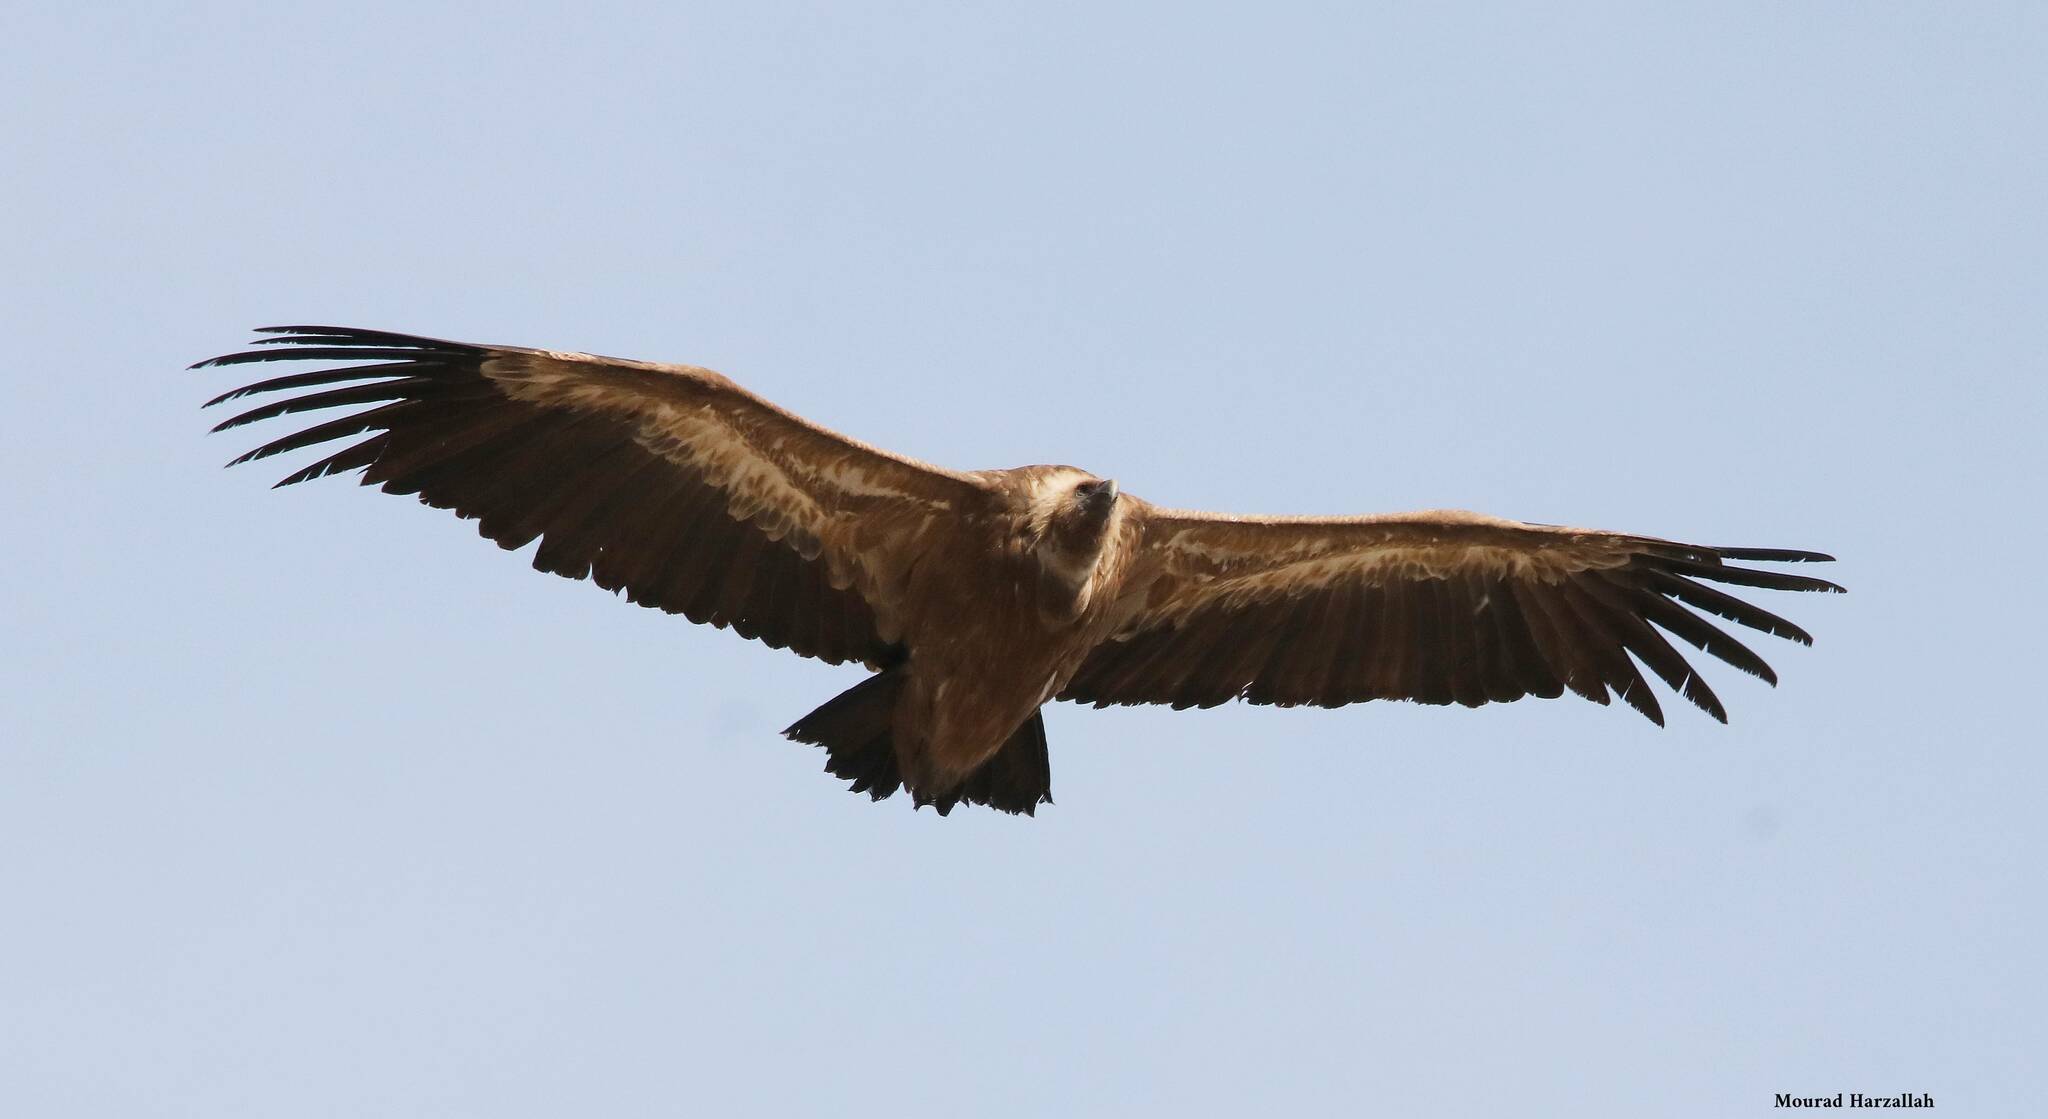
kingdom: Animalia
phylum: Chordata
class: Aves
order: Accipitriformes
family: Accipitridae
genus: Gyps
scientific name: Gyps fulvus
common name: Griffon vulture
